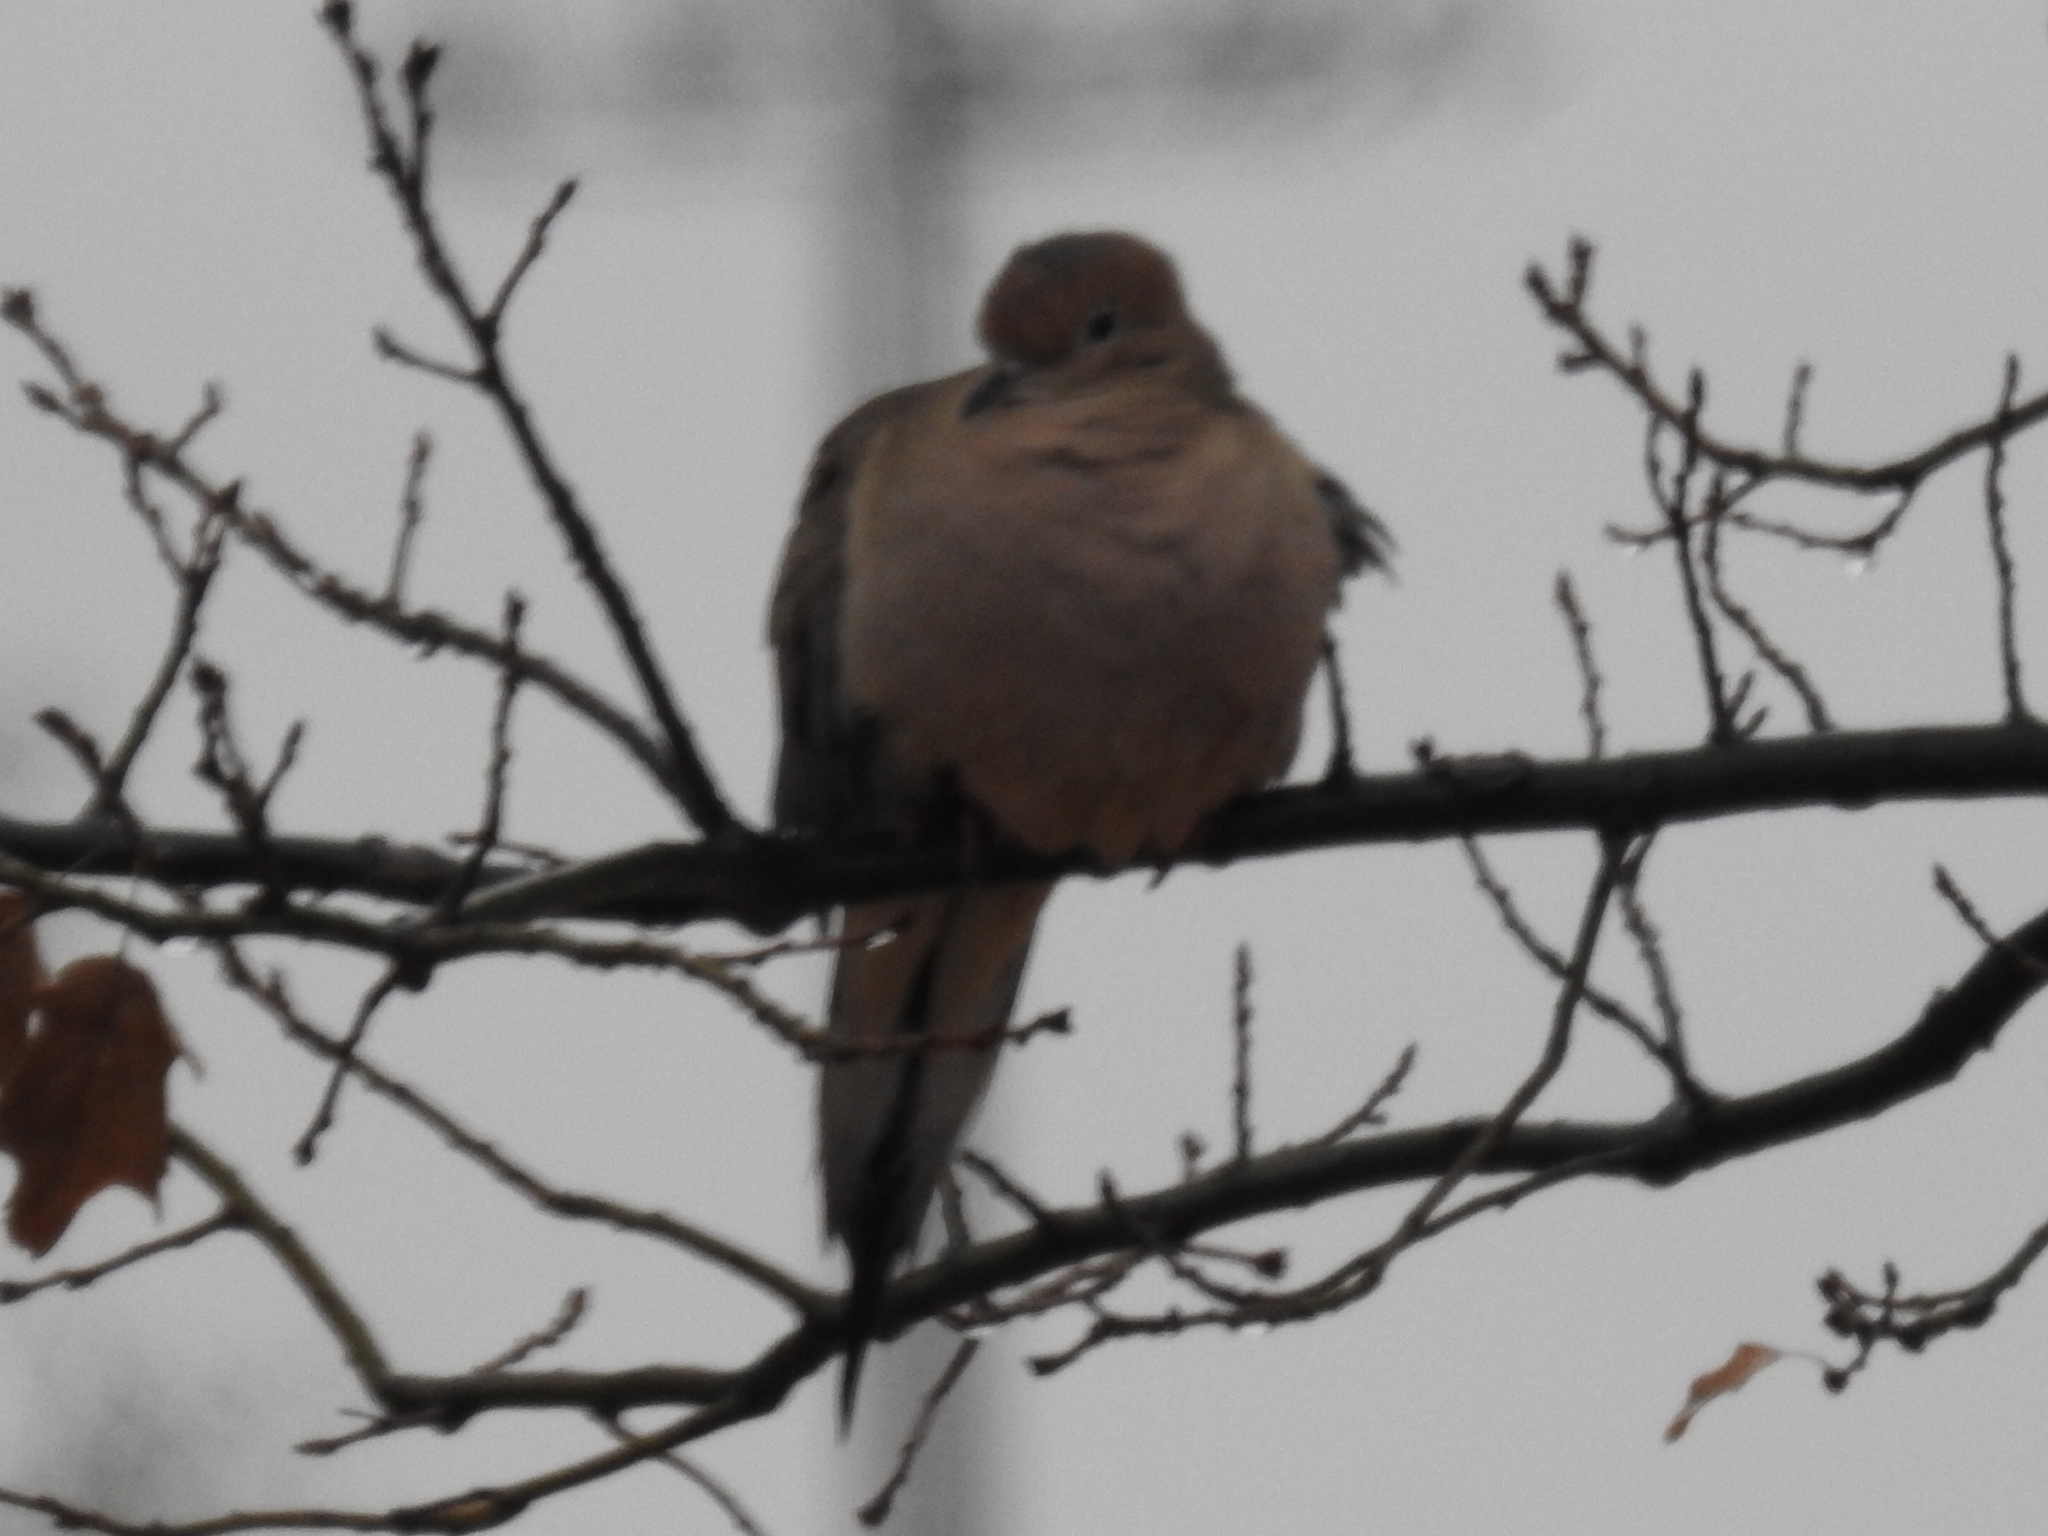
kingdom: Animalia
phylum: Chordata
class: Aves
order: Columbiformes
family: Columbidae
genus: Zenaida
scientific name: Zenaida macroura
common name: Mourning dove
